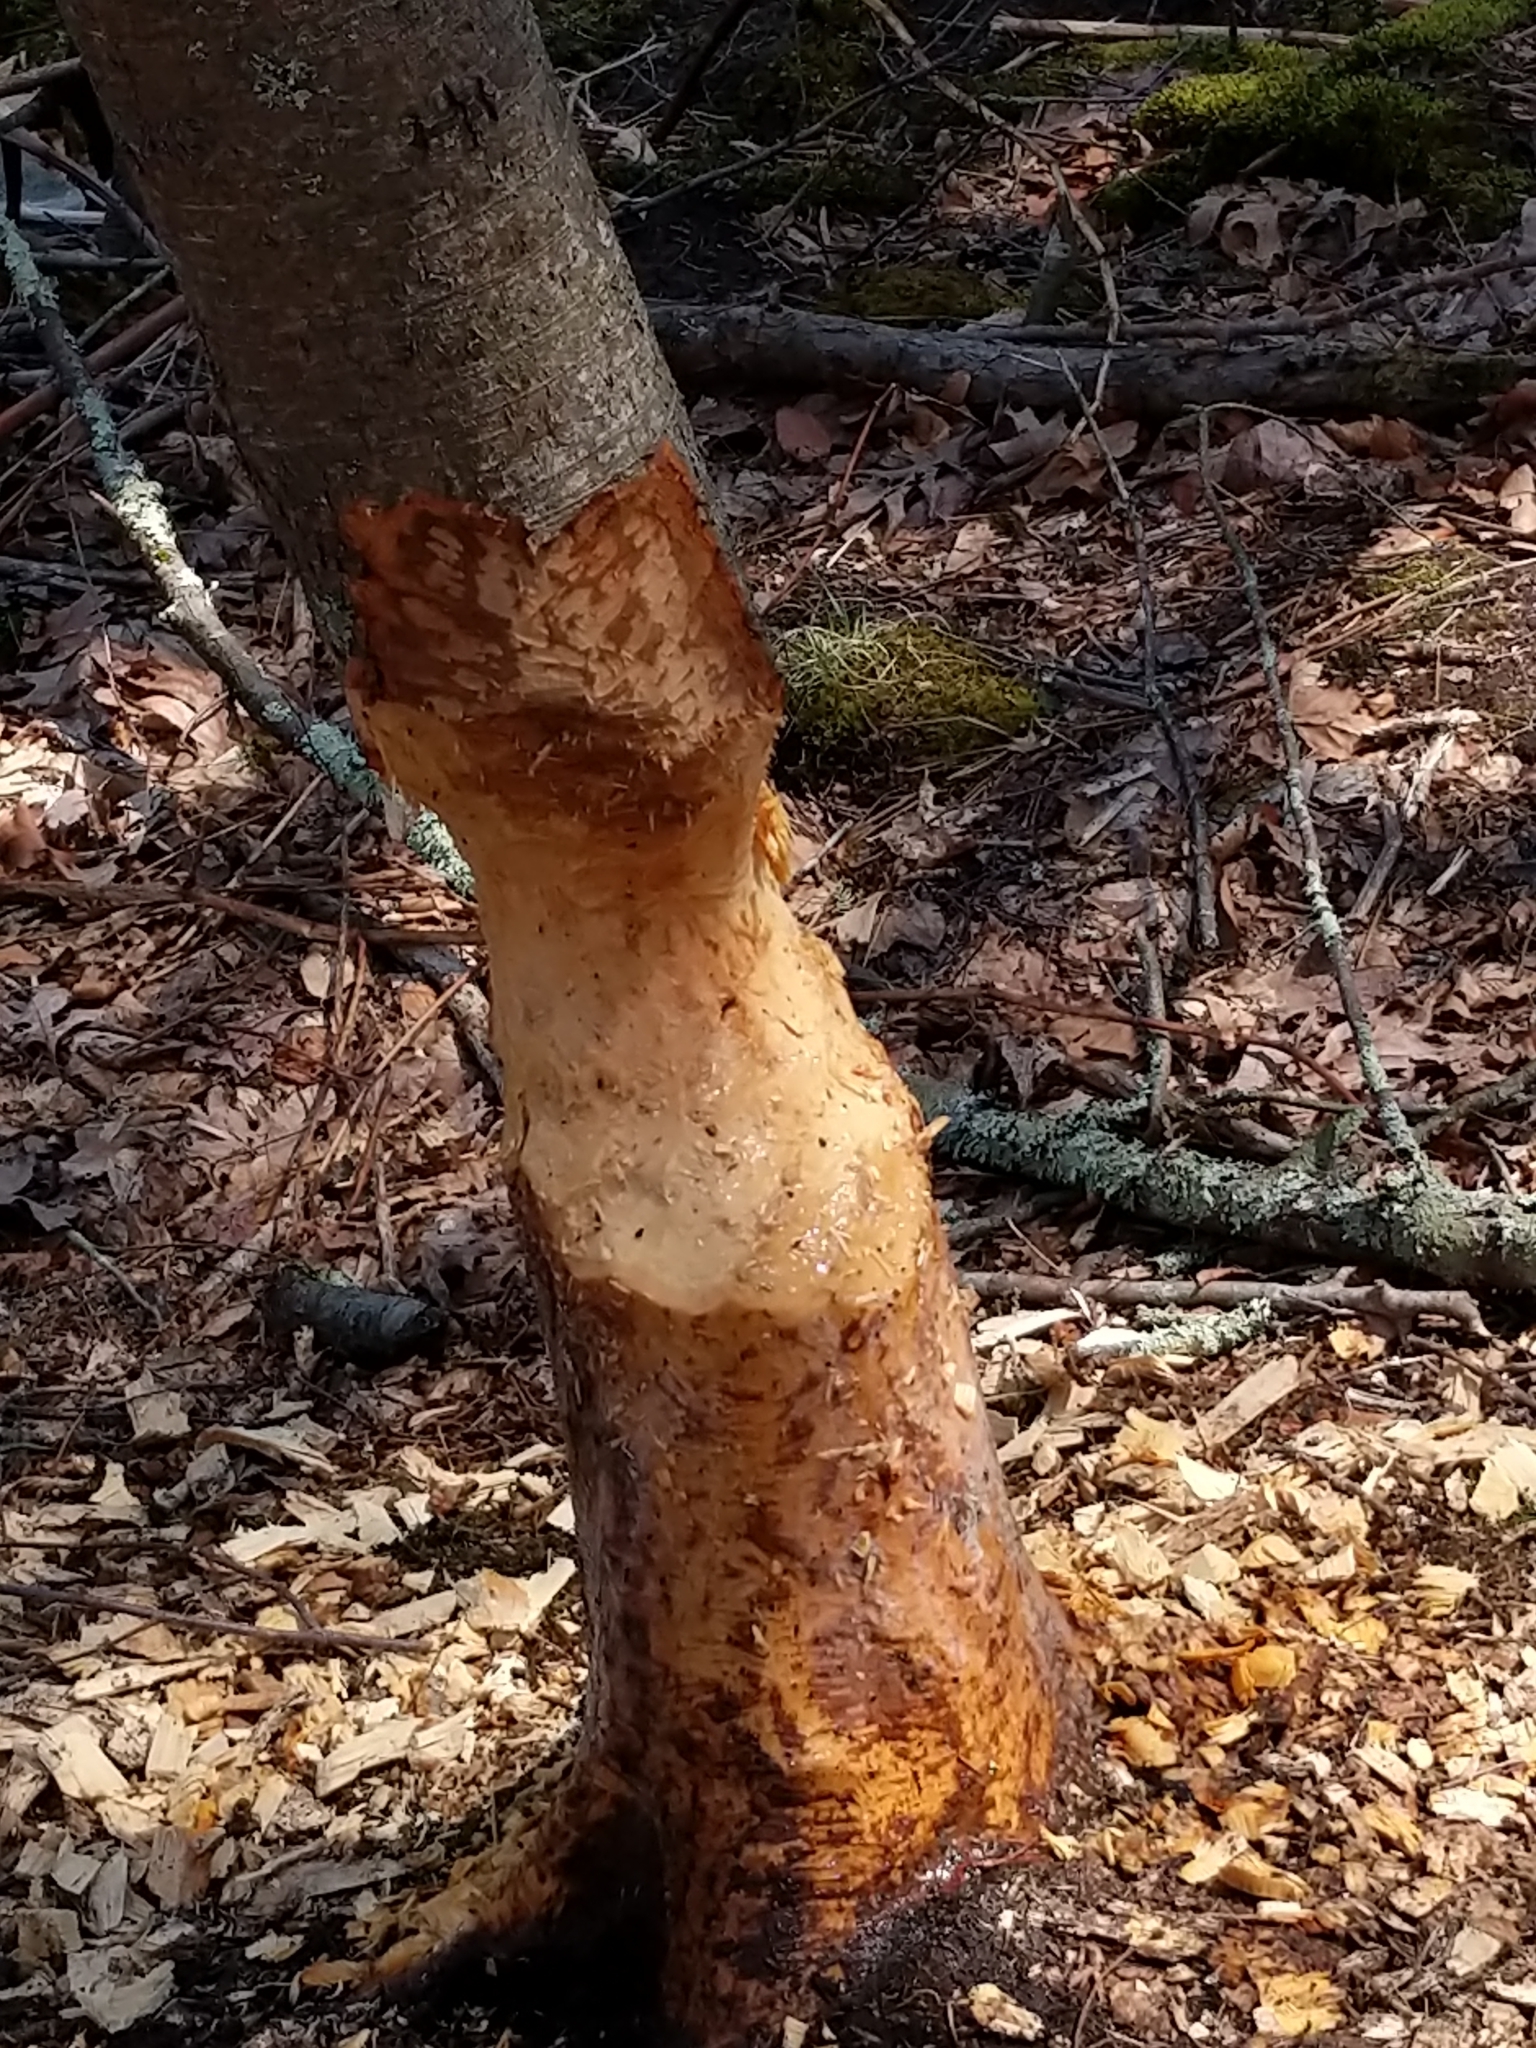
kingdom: Animalia
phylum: Chordata
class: Mammalia
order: Rodentia
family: Castoridae
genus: Castor
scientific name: Castor canadensis
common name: American beaver
